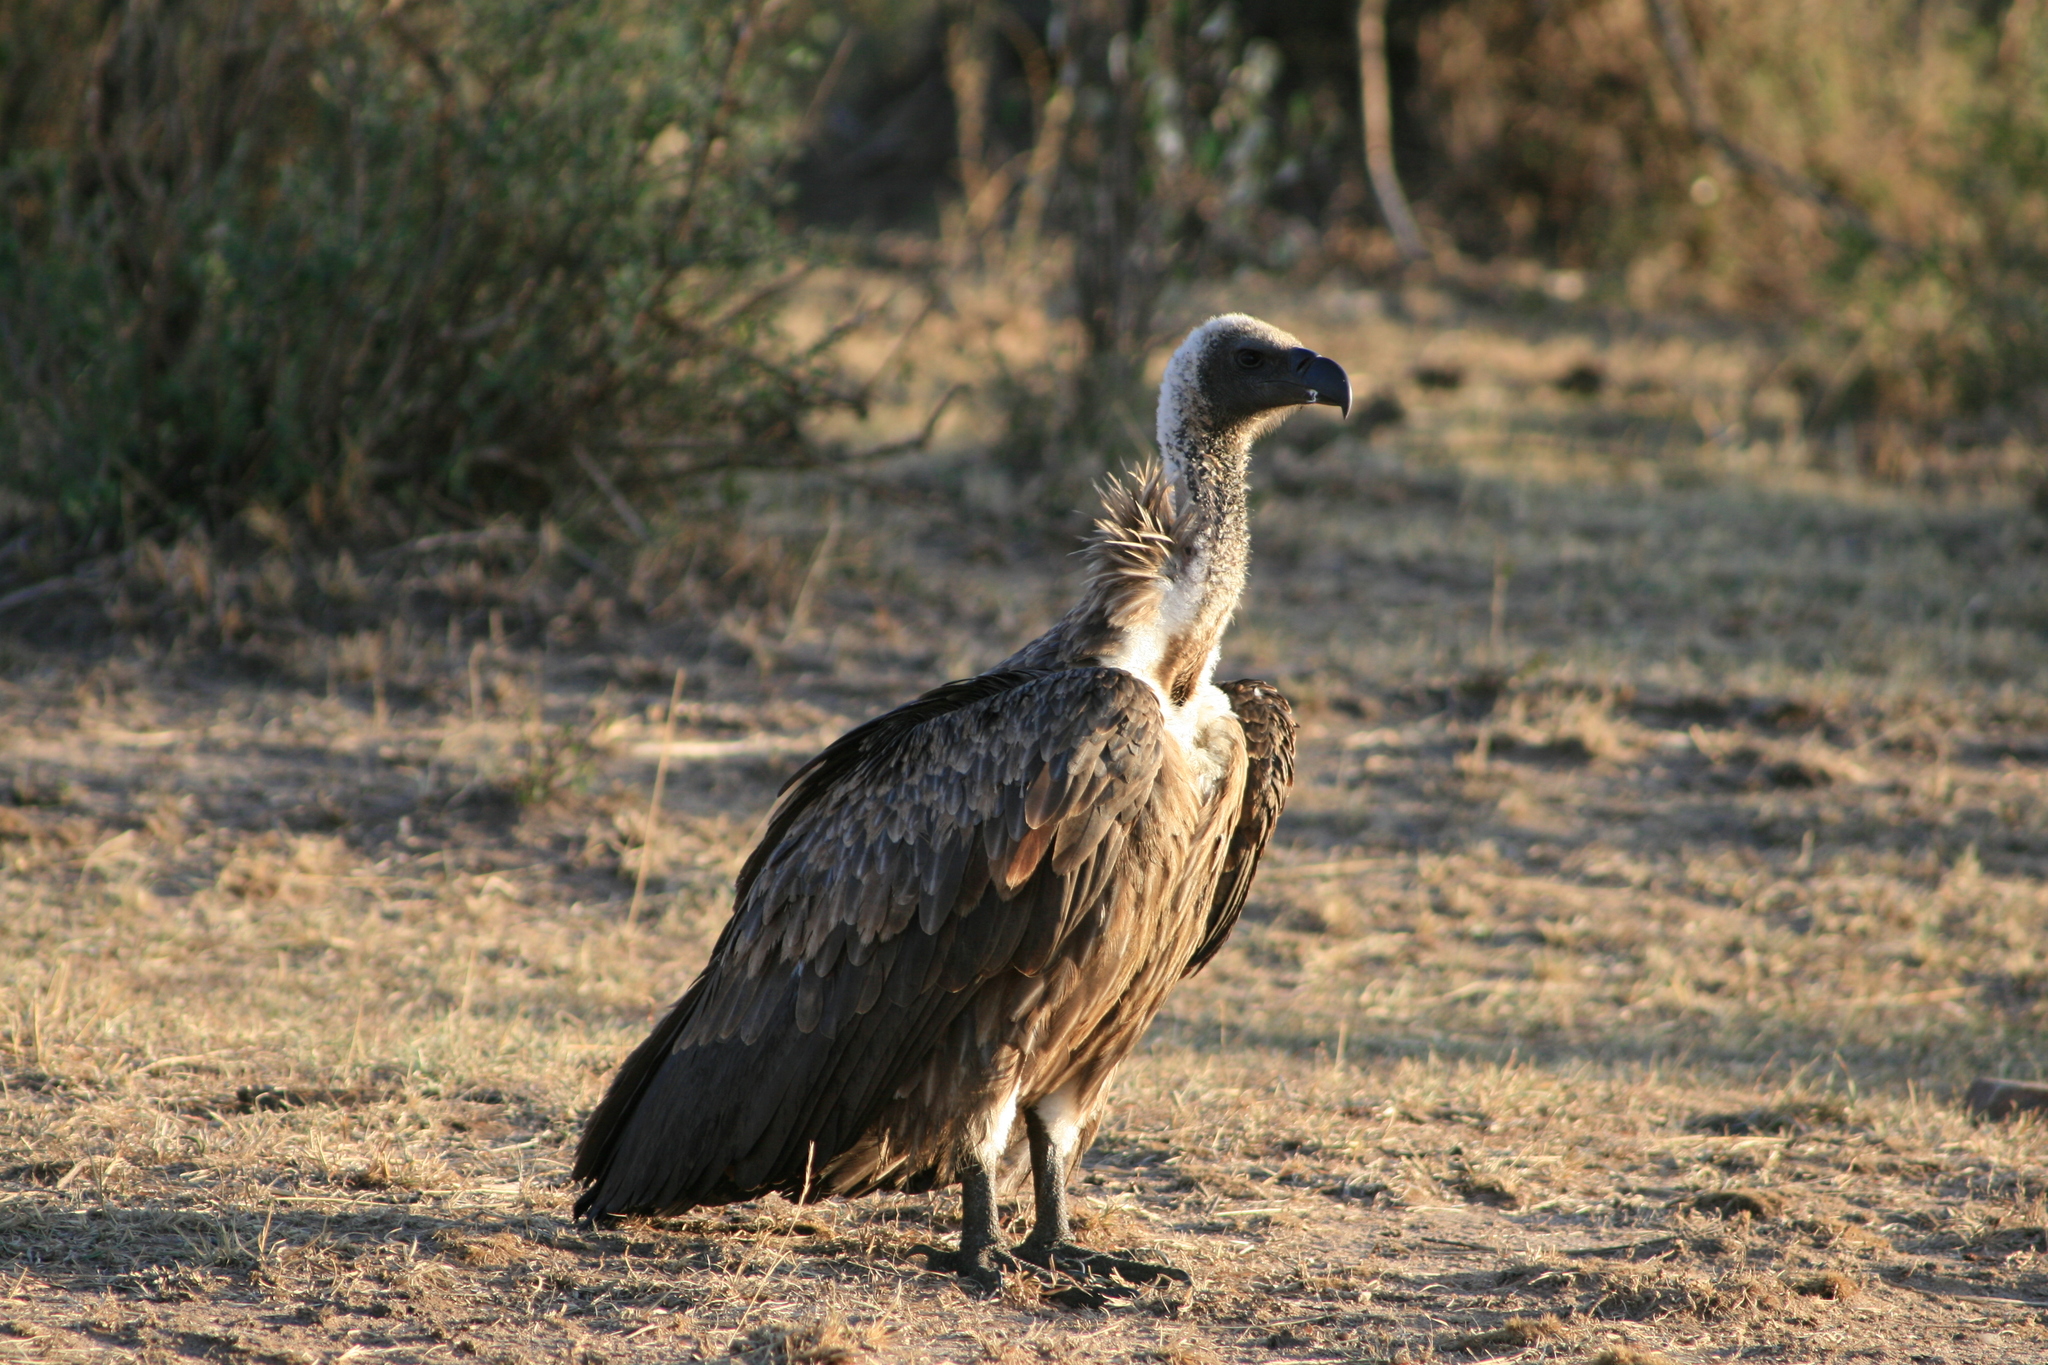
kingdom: Animalia
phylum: Chordata
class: Aves
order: Accipitriformes
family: Accipitridae
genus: Gyps
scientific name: Gyps africanus
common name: White-backed vulture
